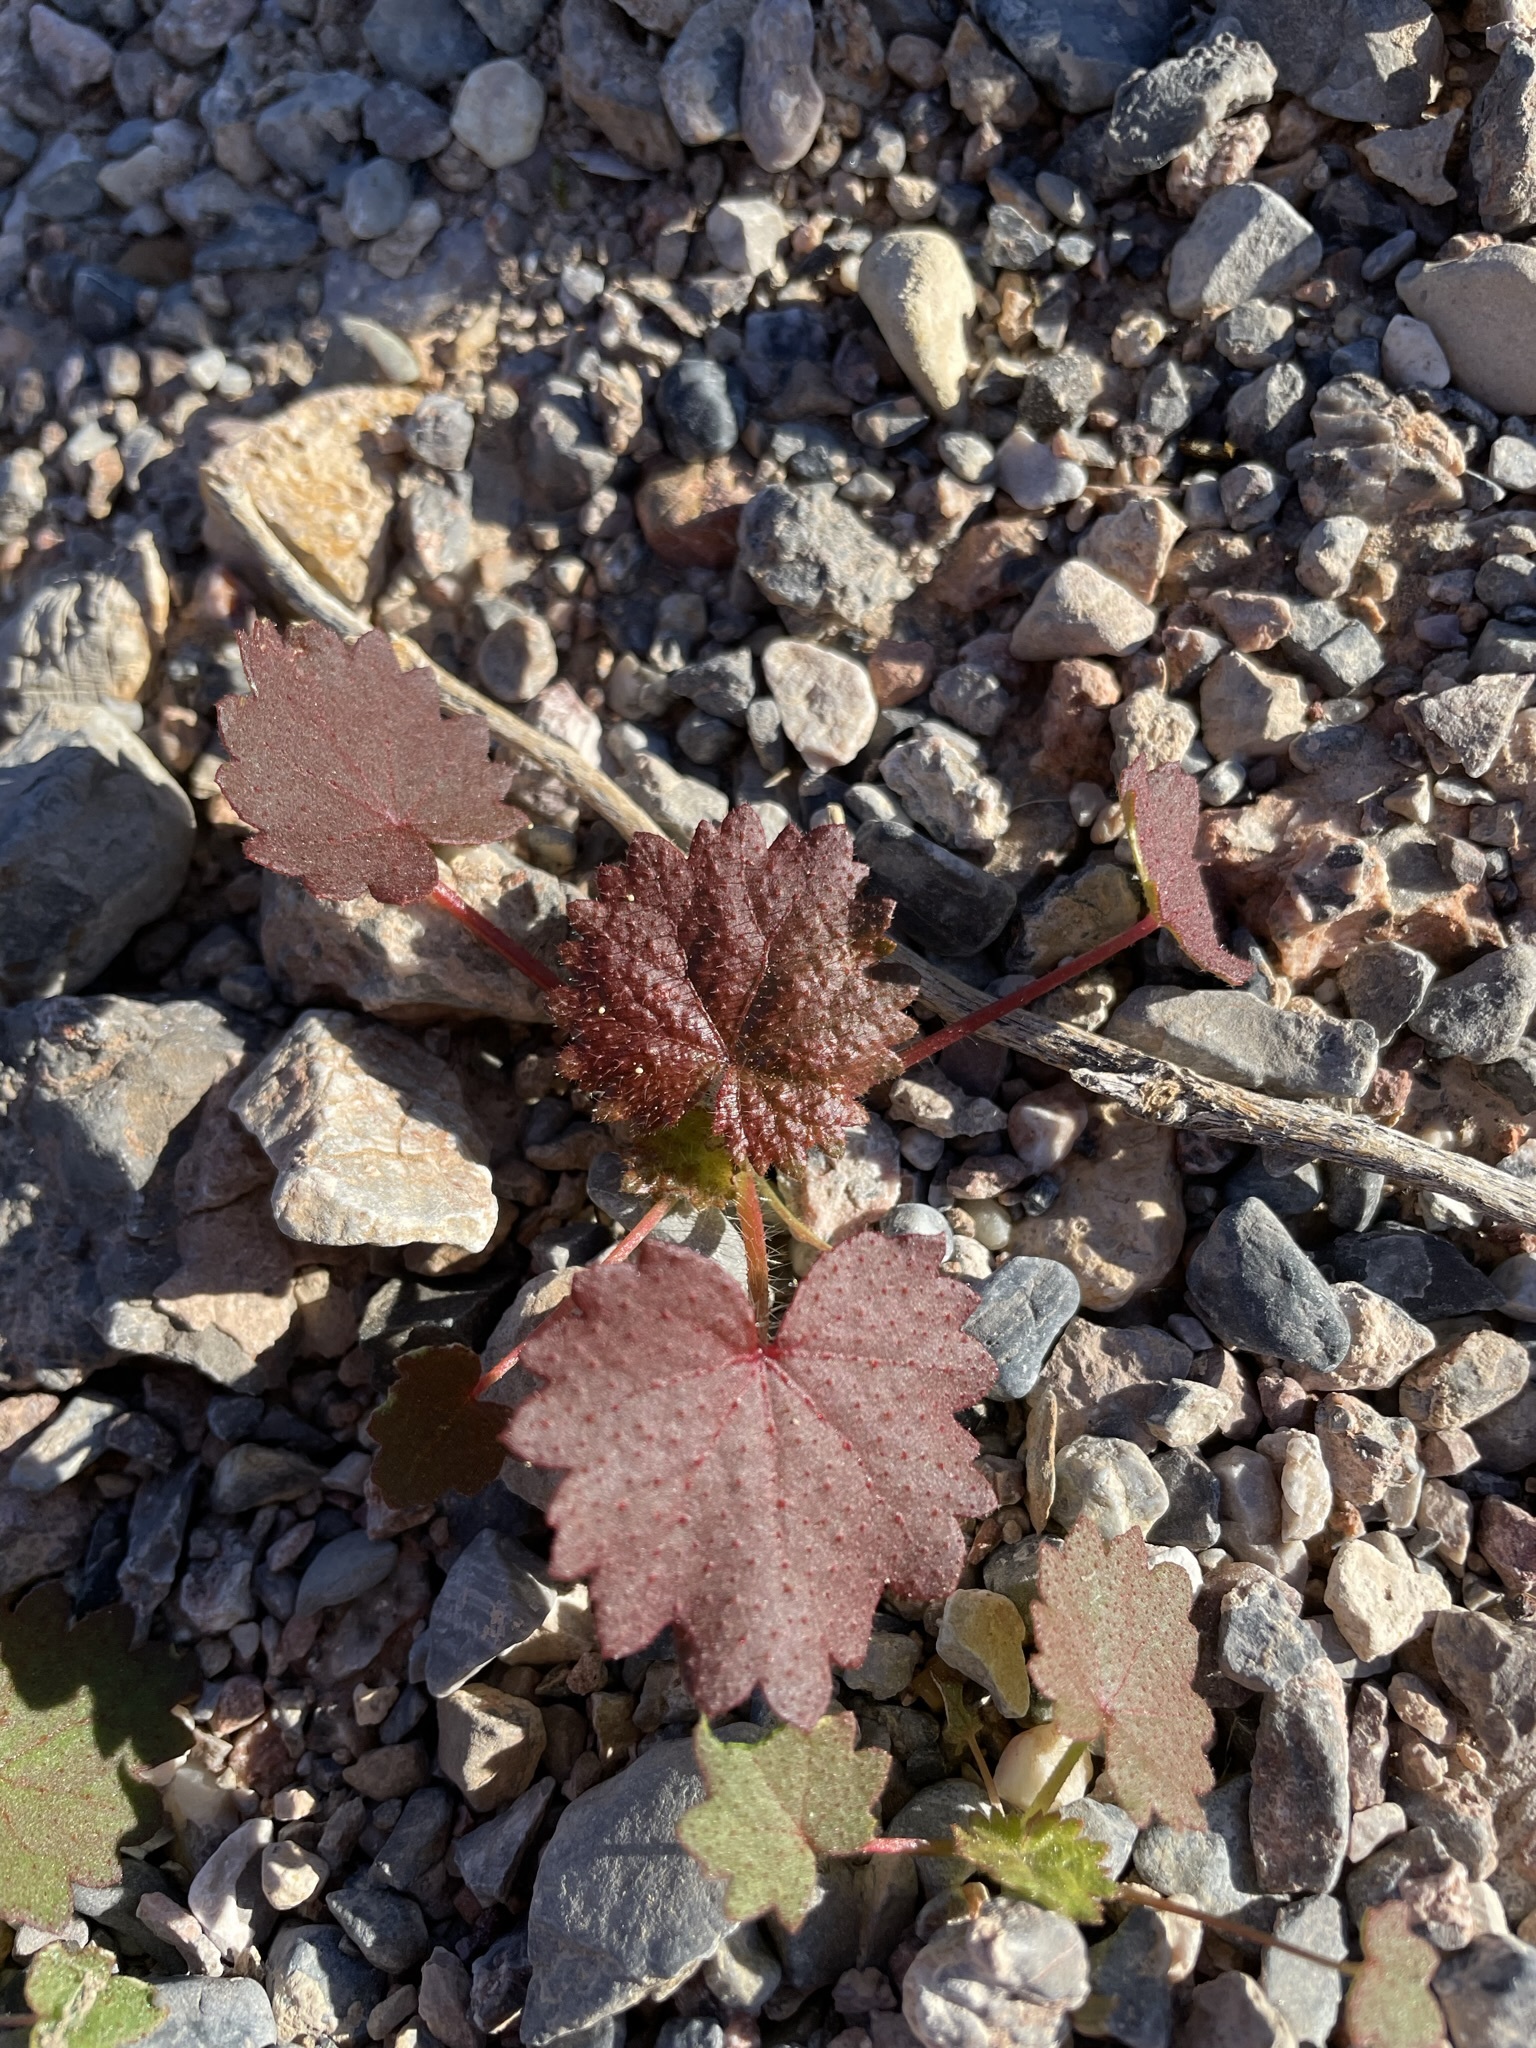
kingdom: Plantae
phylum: Tracheophyta
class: Magnoliopsida
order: Malvales
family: Malvaceae
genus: Eremalche
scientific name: Eremalche rotundifolia
